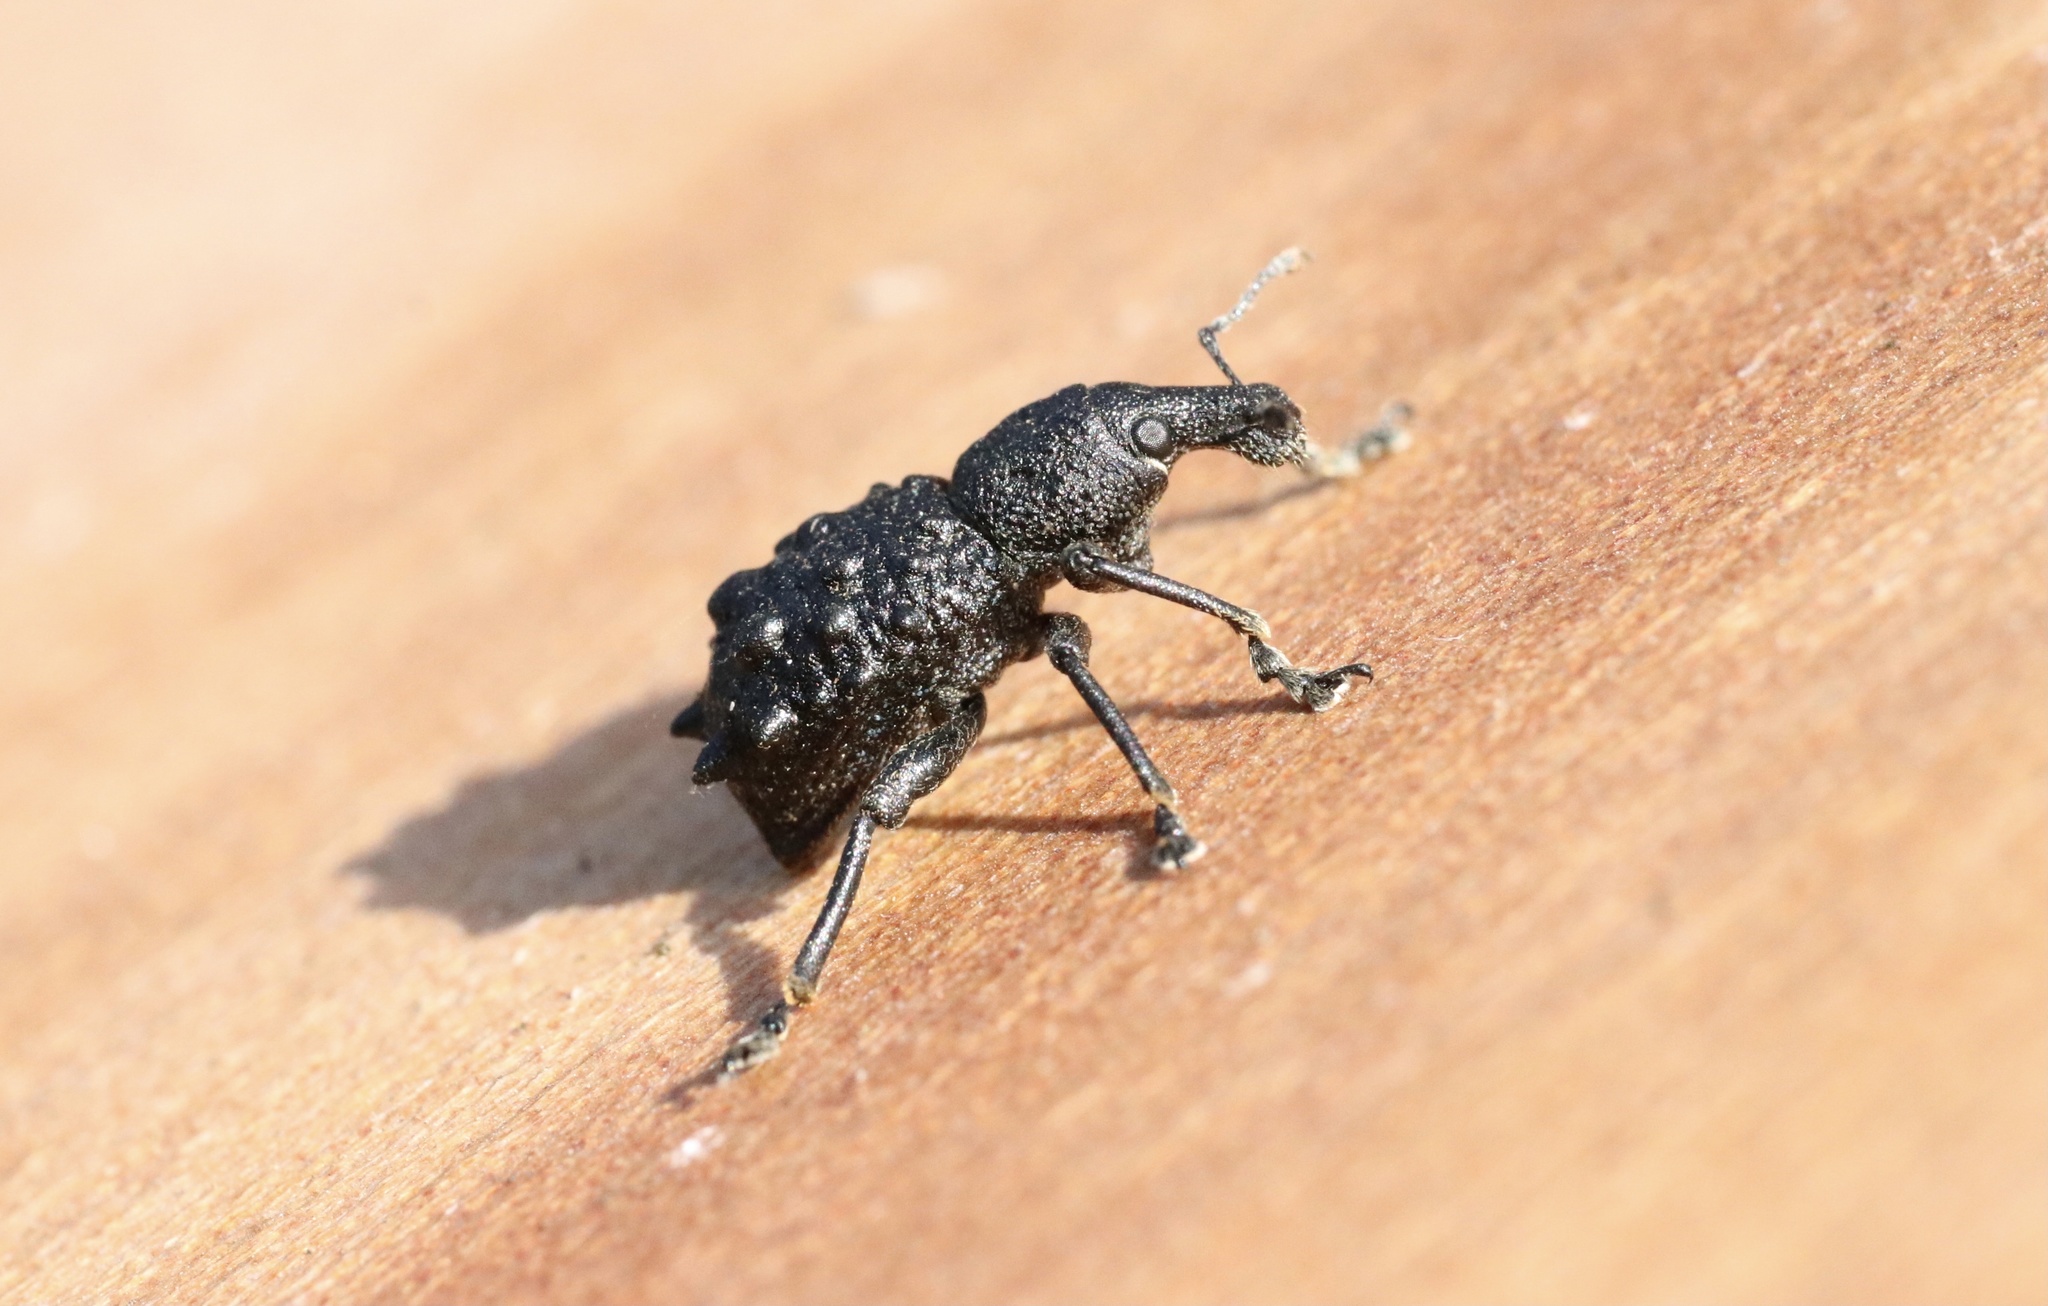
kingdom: Animalia
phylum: Arthropoda
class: Insecta
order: Coleoptera
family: Curculionidae
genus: Megalometis
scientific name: Megalometis spiniferus
